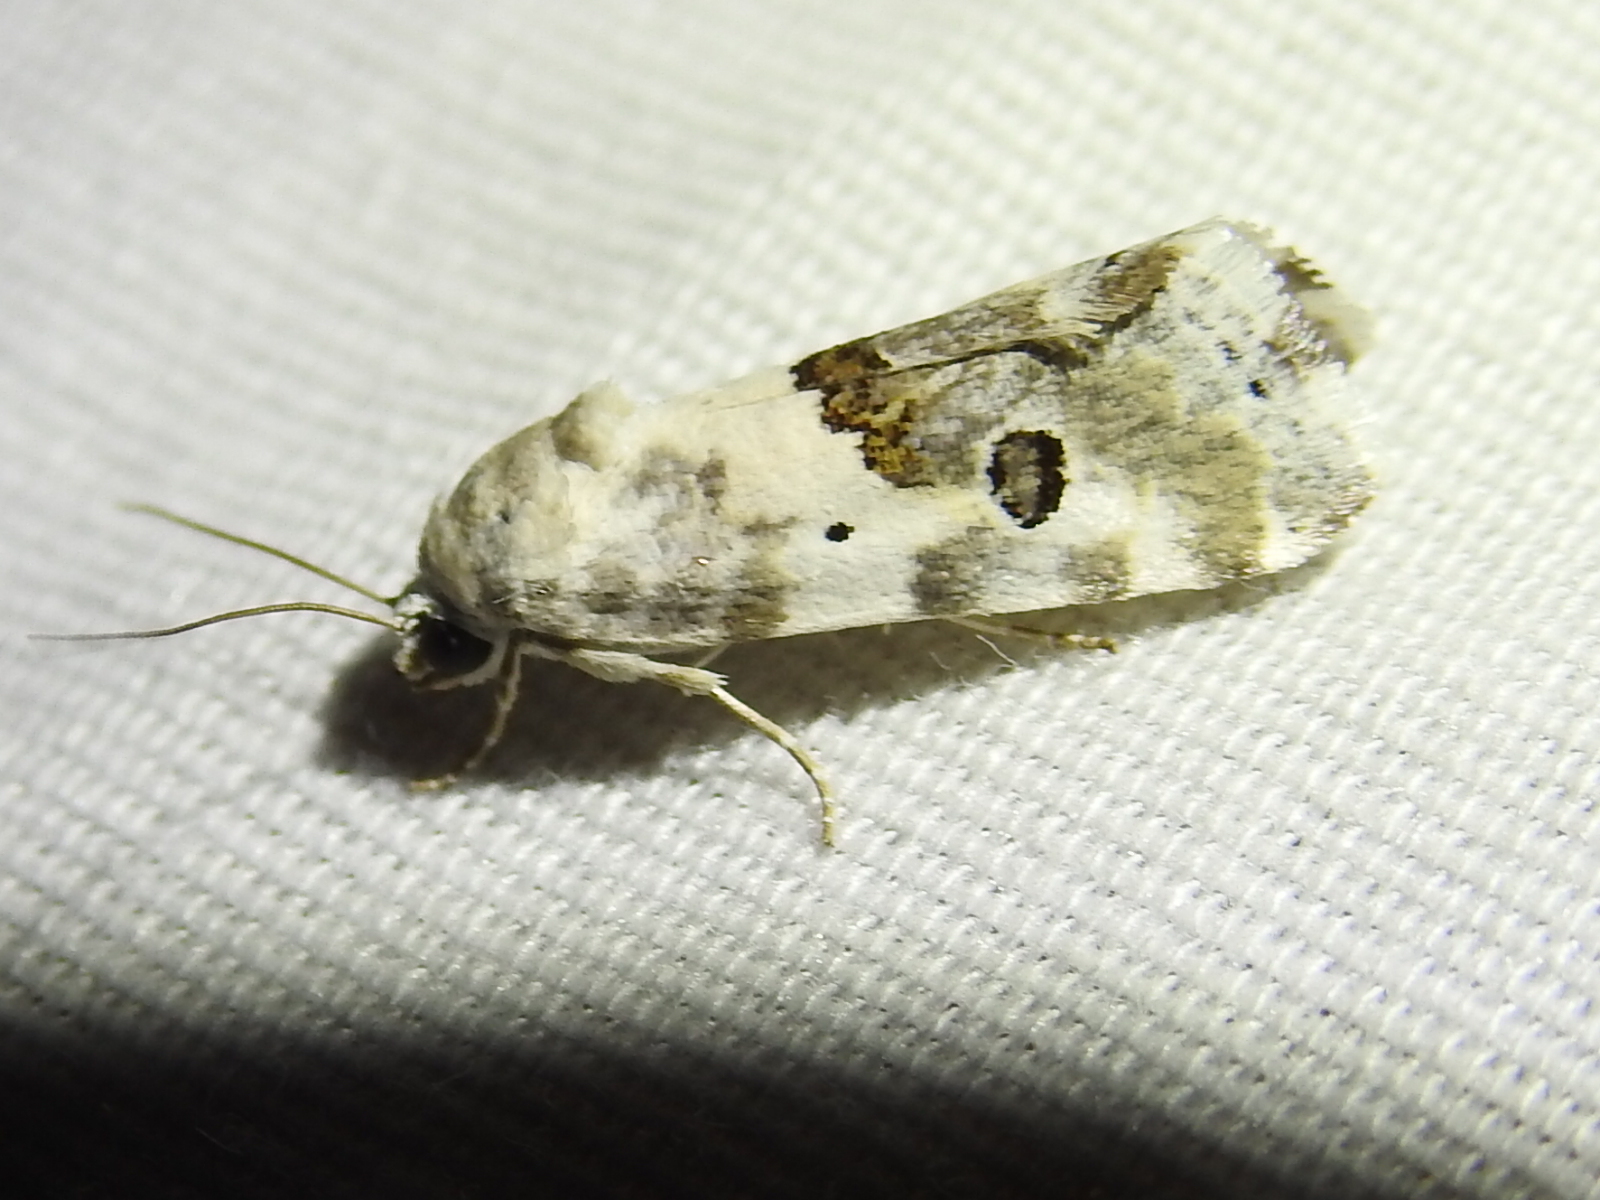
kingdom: Animalia
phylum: Arthropoda
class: Insecta
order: Lepidoptera
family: Noctuidae
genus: Acontia
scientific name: Acontia altera
